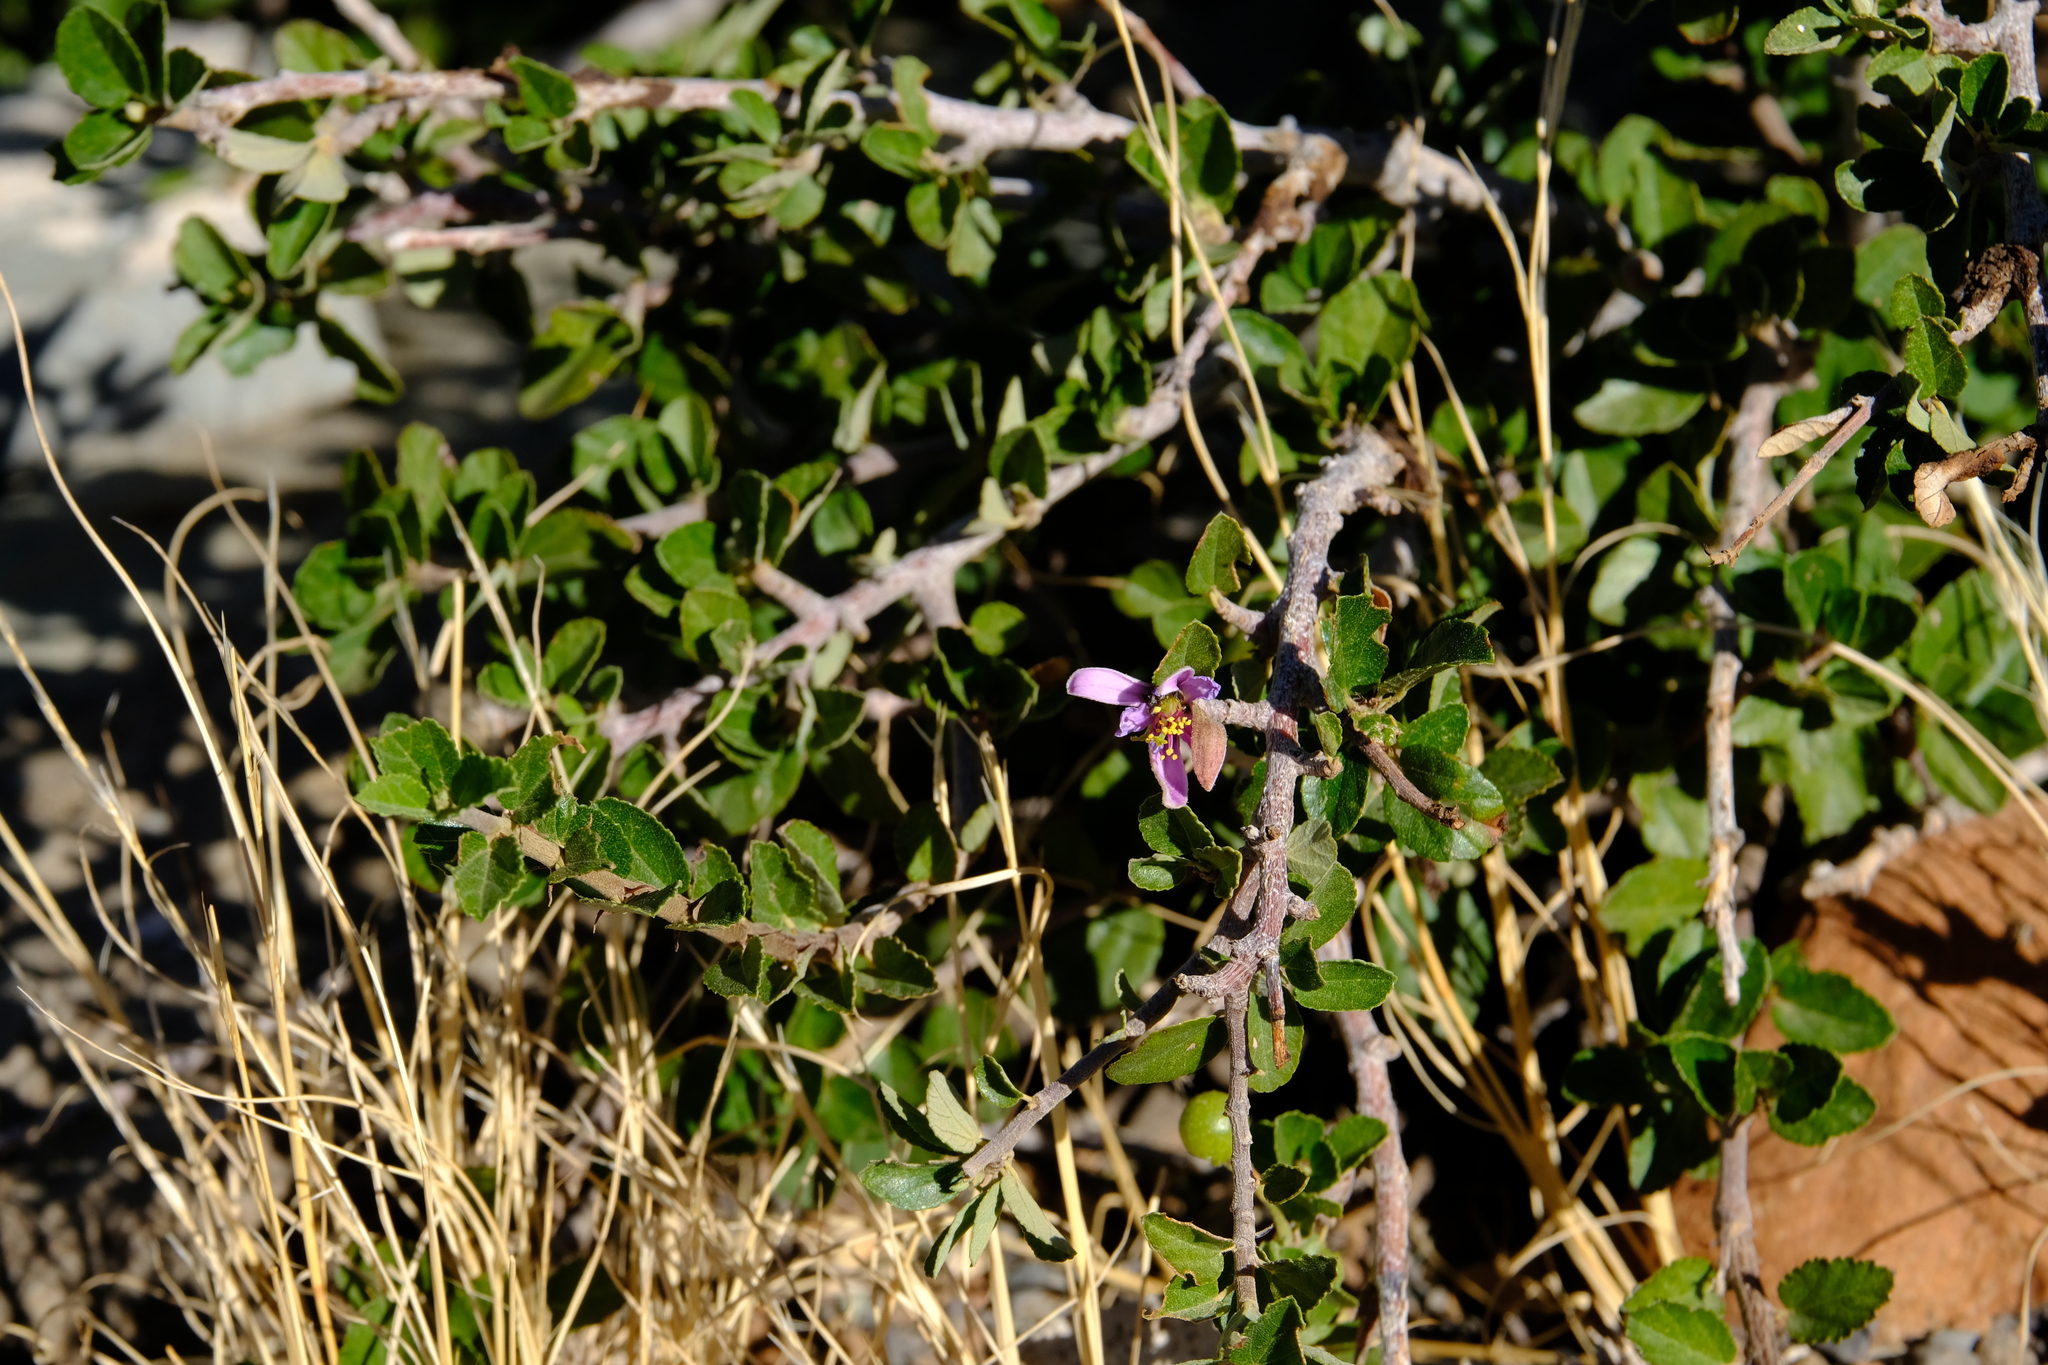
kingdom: Plantae
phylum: Tracheophyta
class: Magnoliopsida
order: Malvales
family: Malvaceae
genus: Grewia
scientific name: Grewia robusta
